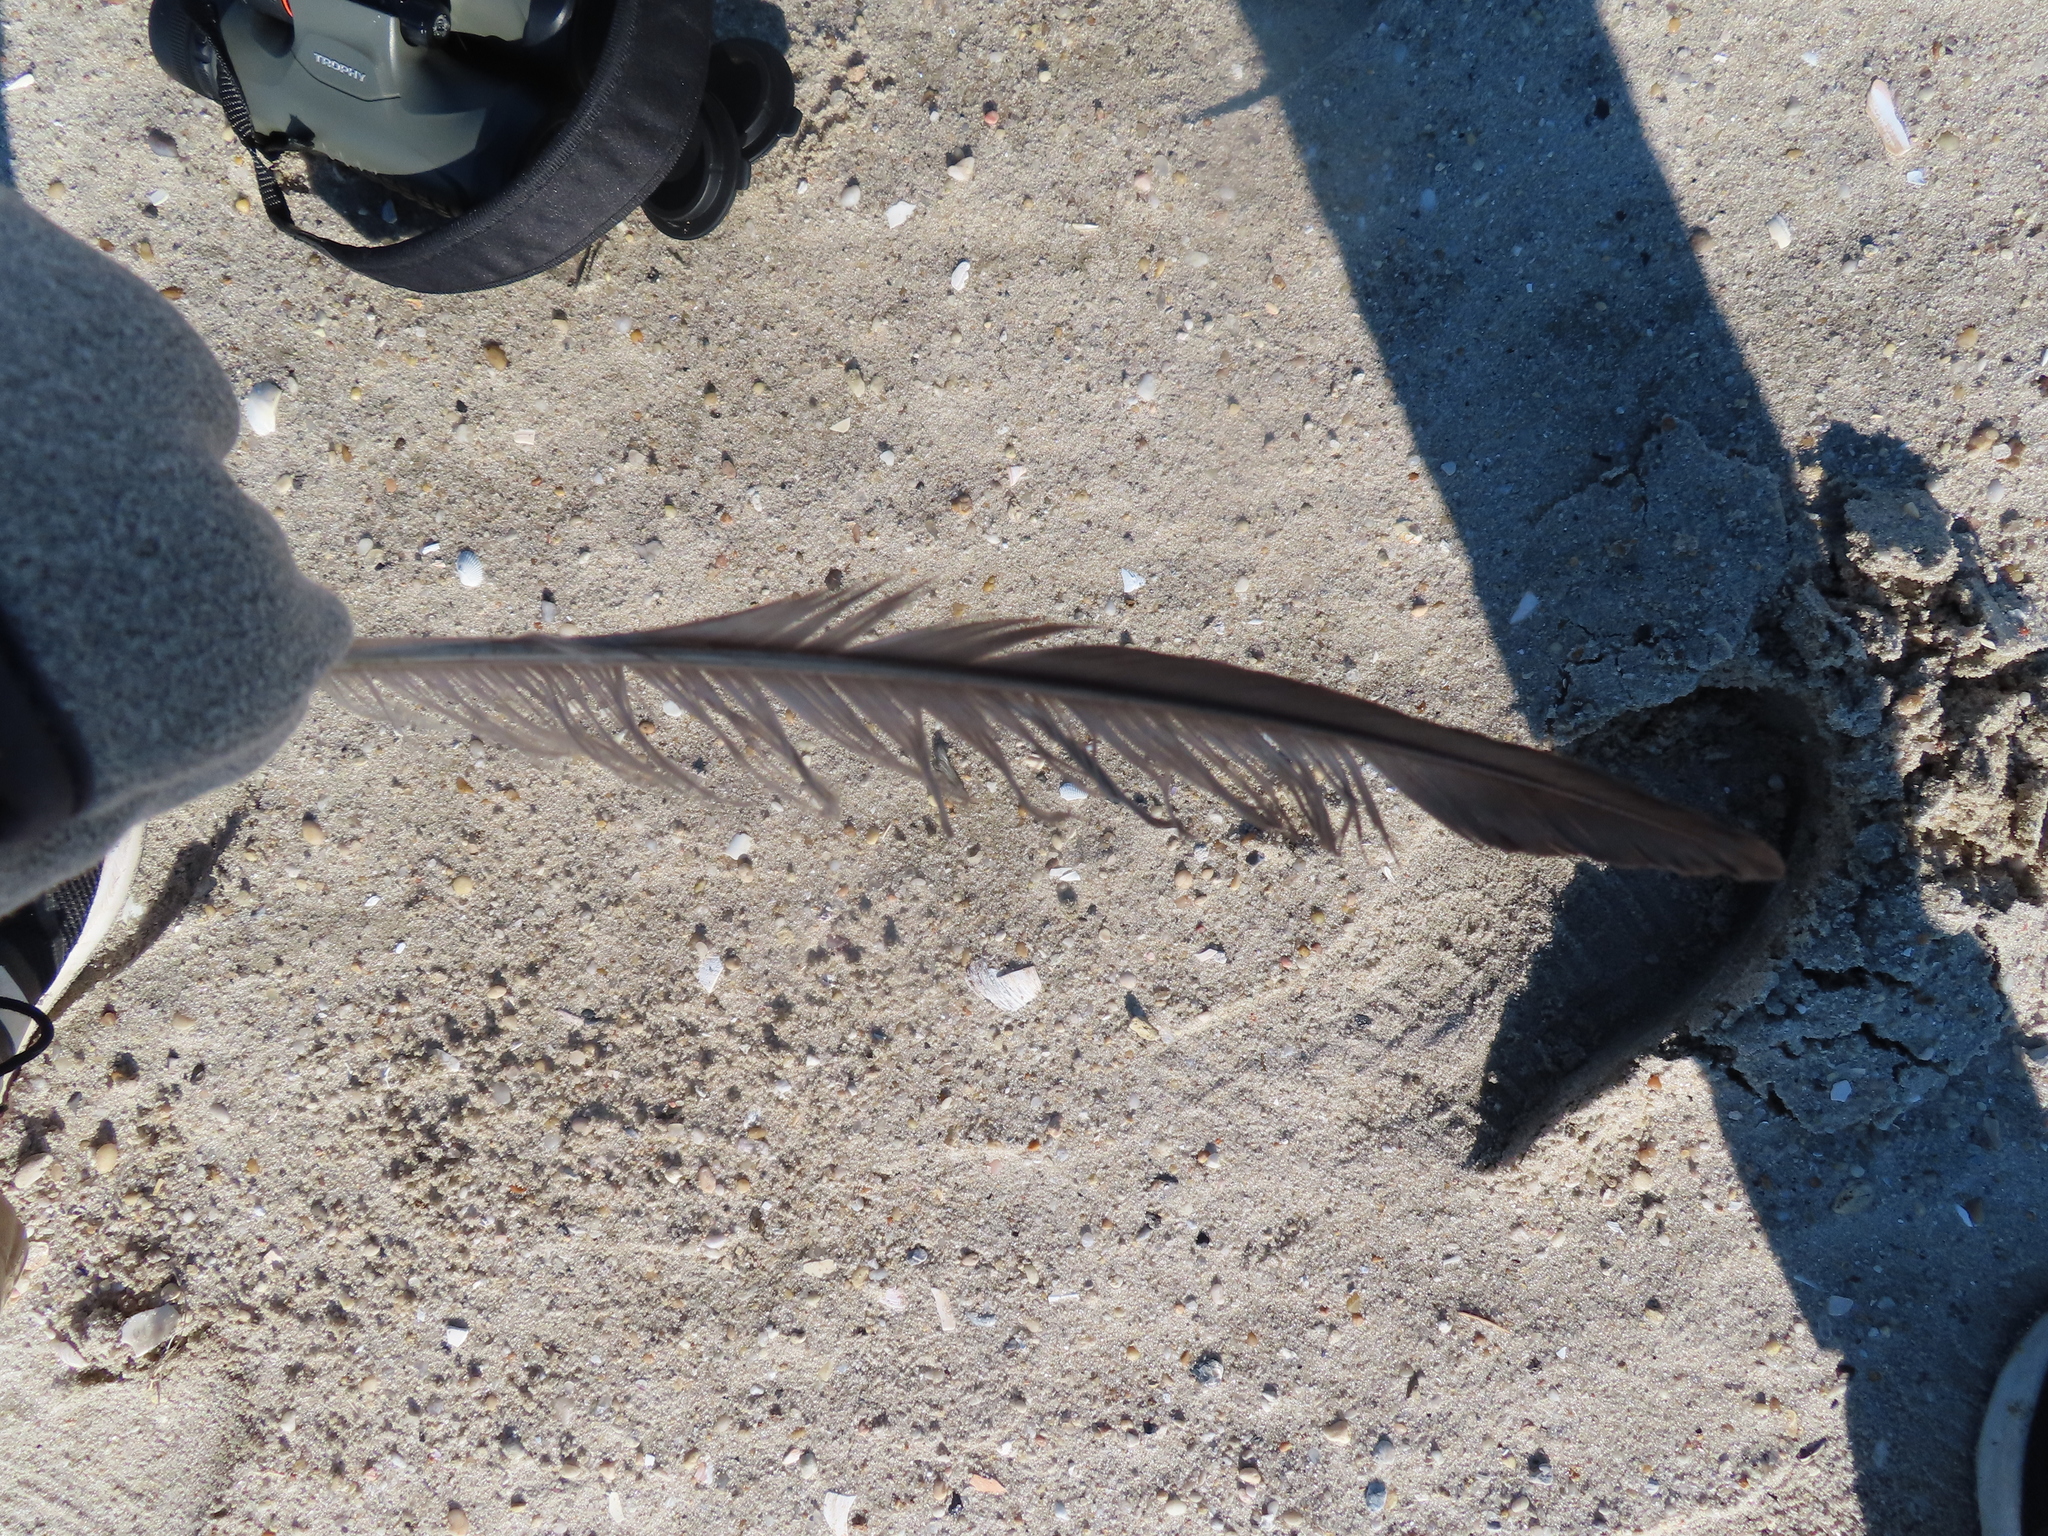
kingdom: Animalia
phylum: Chordata
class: Aves
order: Charadriiformes
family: Laridae
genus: Rynchops
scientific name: Rynchops niger
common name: Black skimmer
